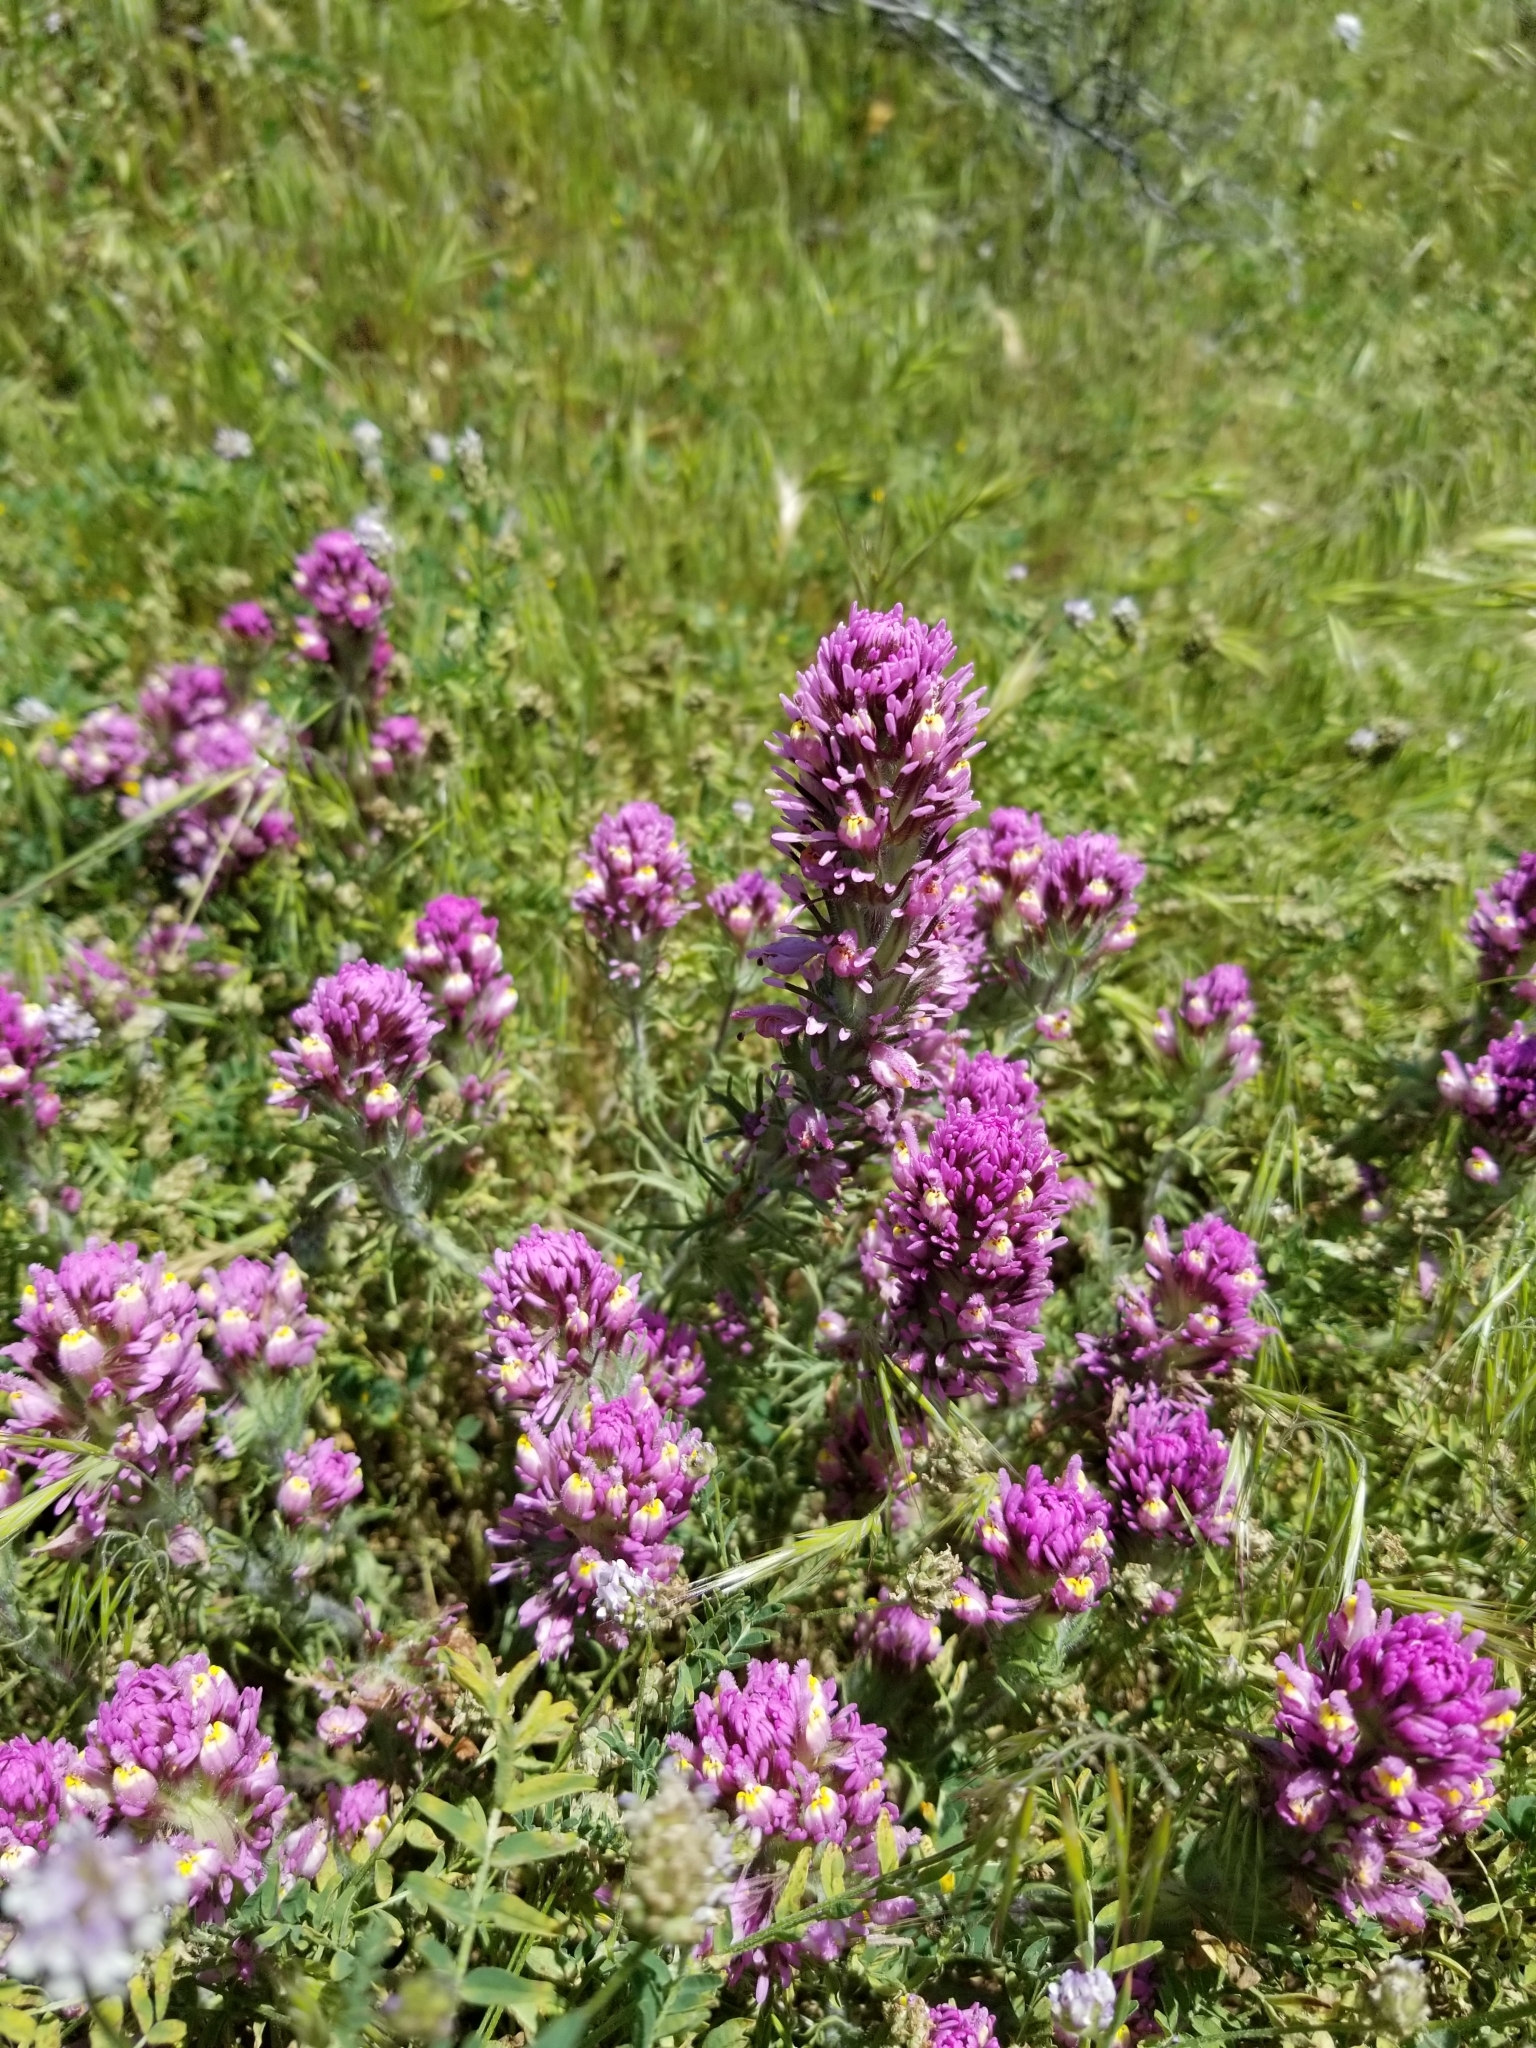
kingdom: Plantae
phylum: Tracheophyta
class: Magnoliopsida
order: Lamiales
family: Orobanchaceae
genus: Castilleja
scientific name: Castilleja exserta
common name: Purple owl-clover
